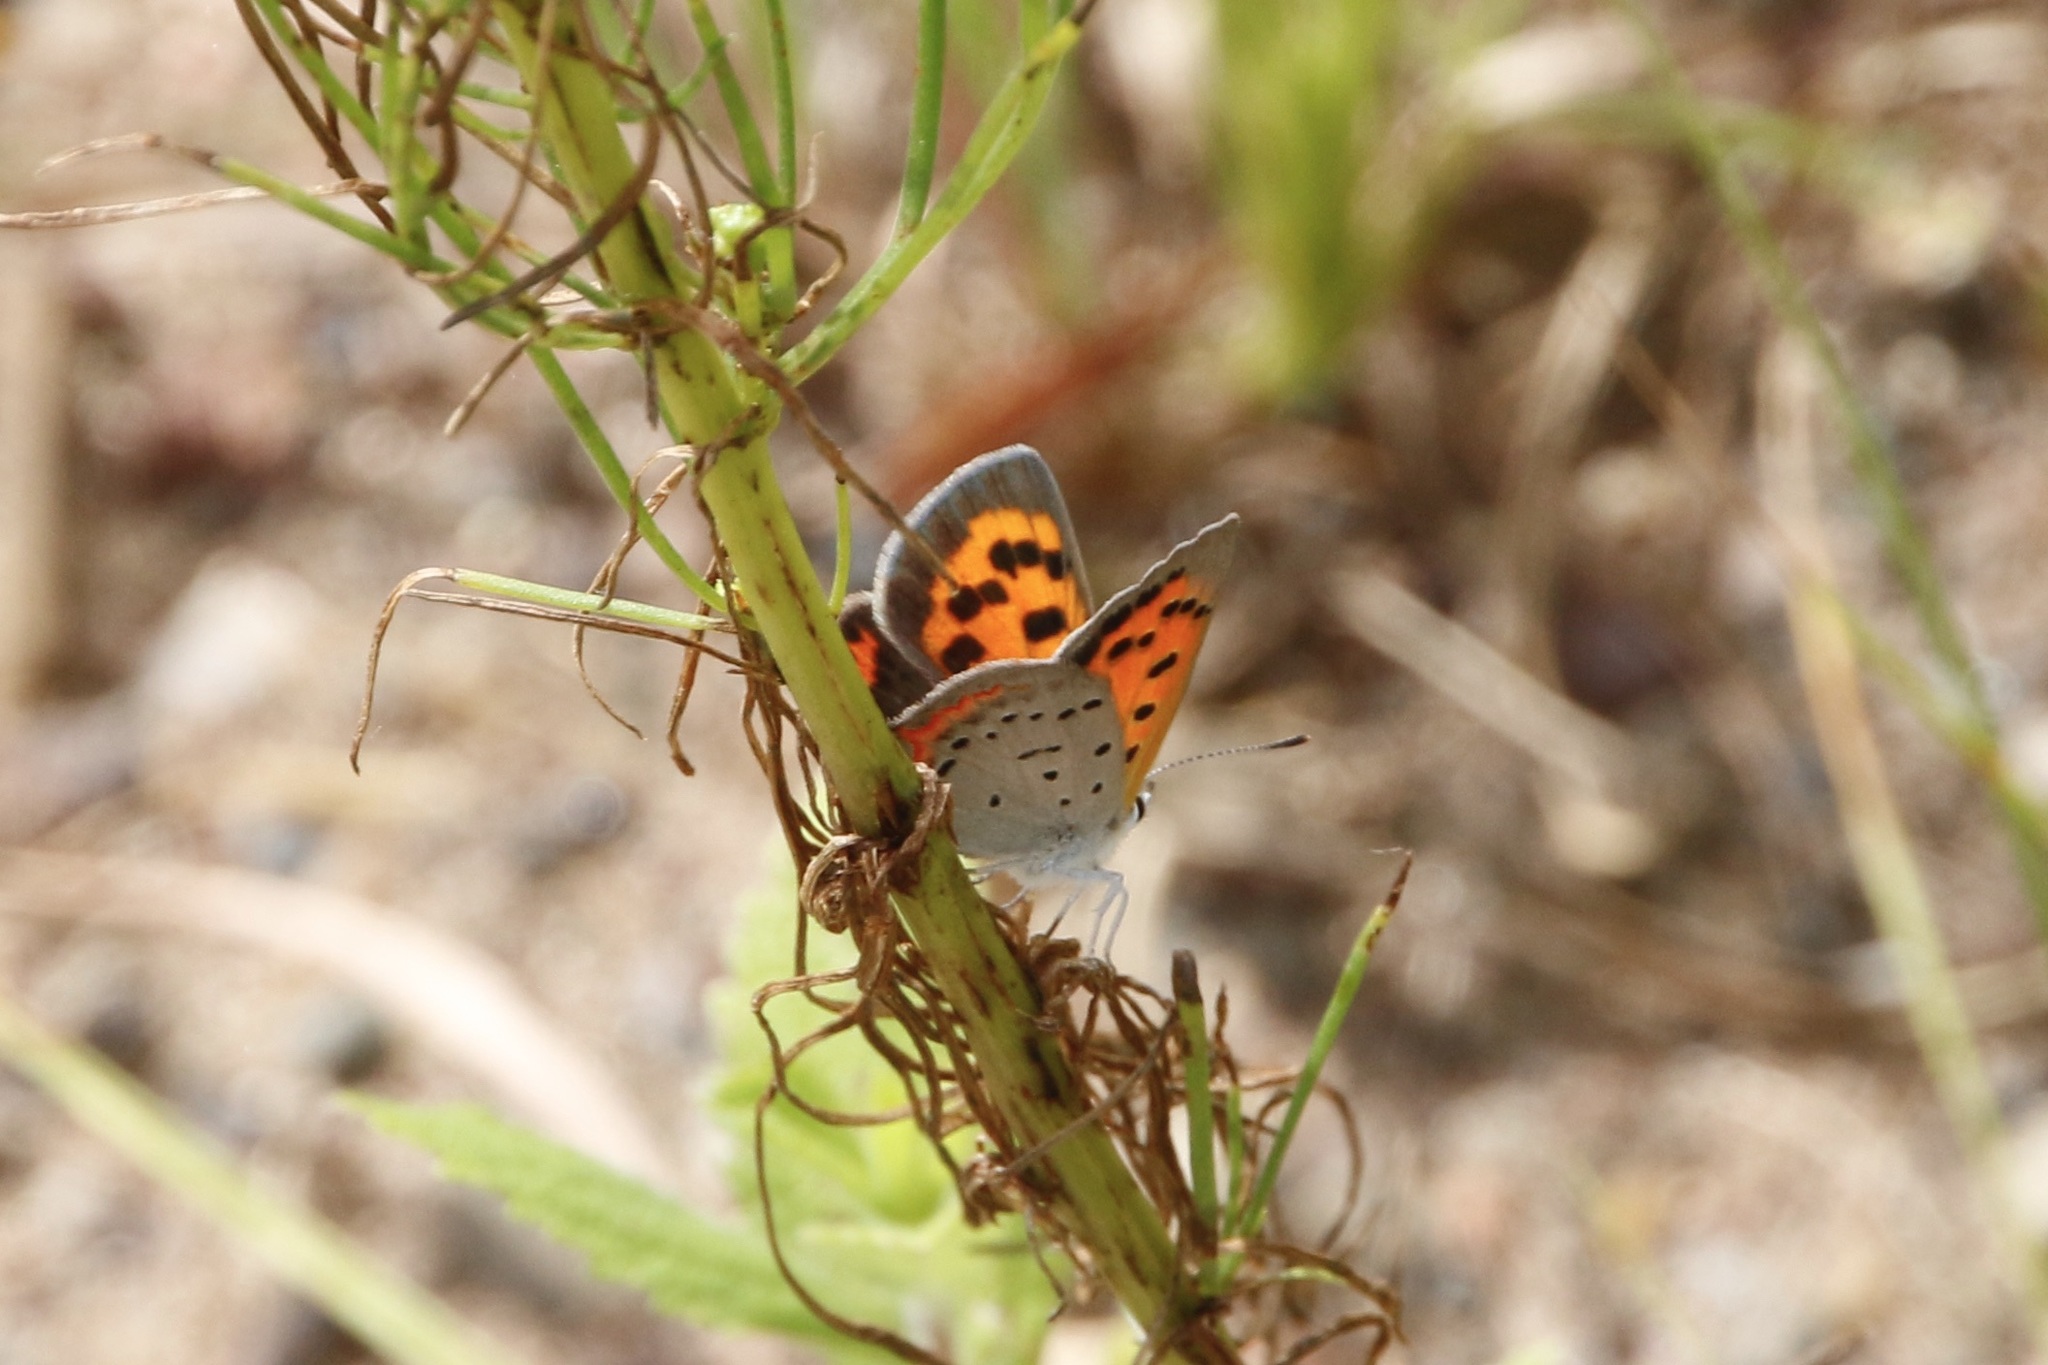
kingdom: Animalia
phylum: Arthropoda
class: Insecta
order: Lepidoptera
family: Lycaenidae
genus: Lycaena
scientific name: Lycaena hypophlaeas
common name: American copper
